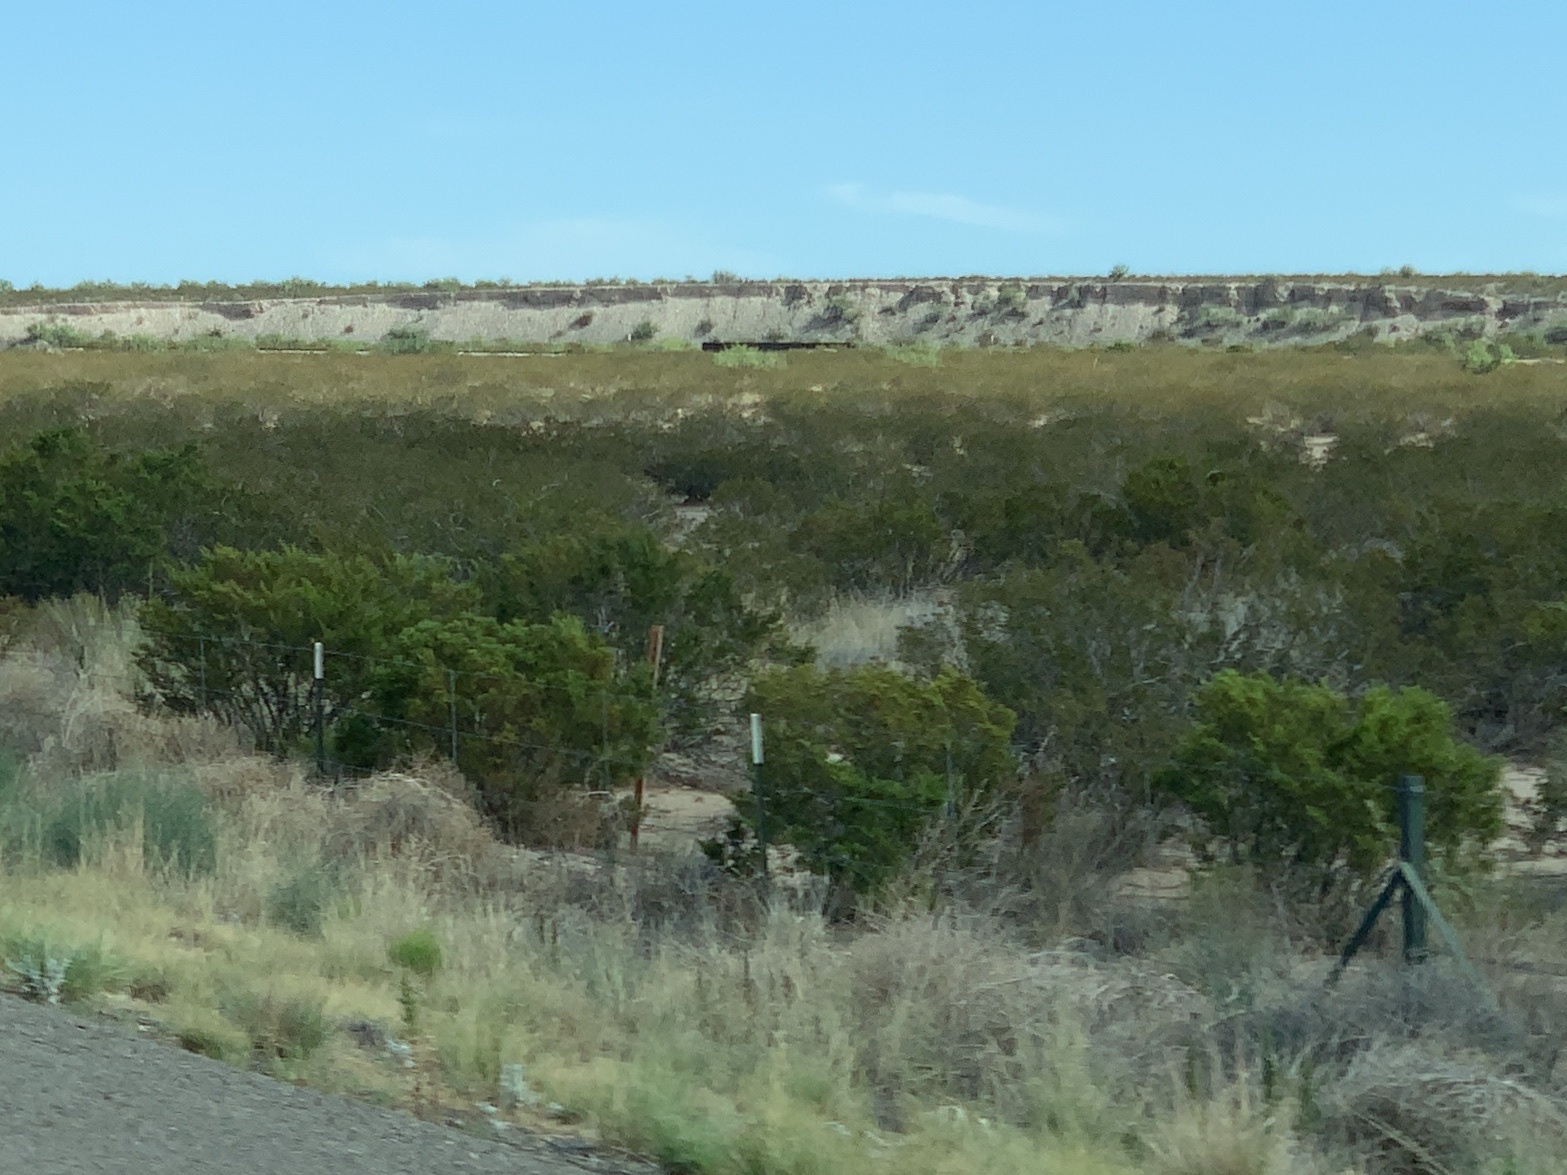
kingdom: Plantae
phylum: Tracheophyta
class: Magnoliopsida
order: Zygophyllales
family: Zygophyllaceae
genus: Larrea
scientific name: Larrea tridentata
